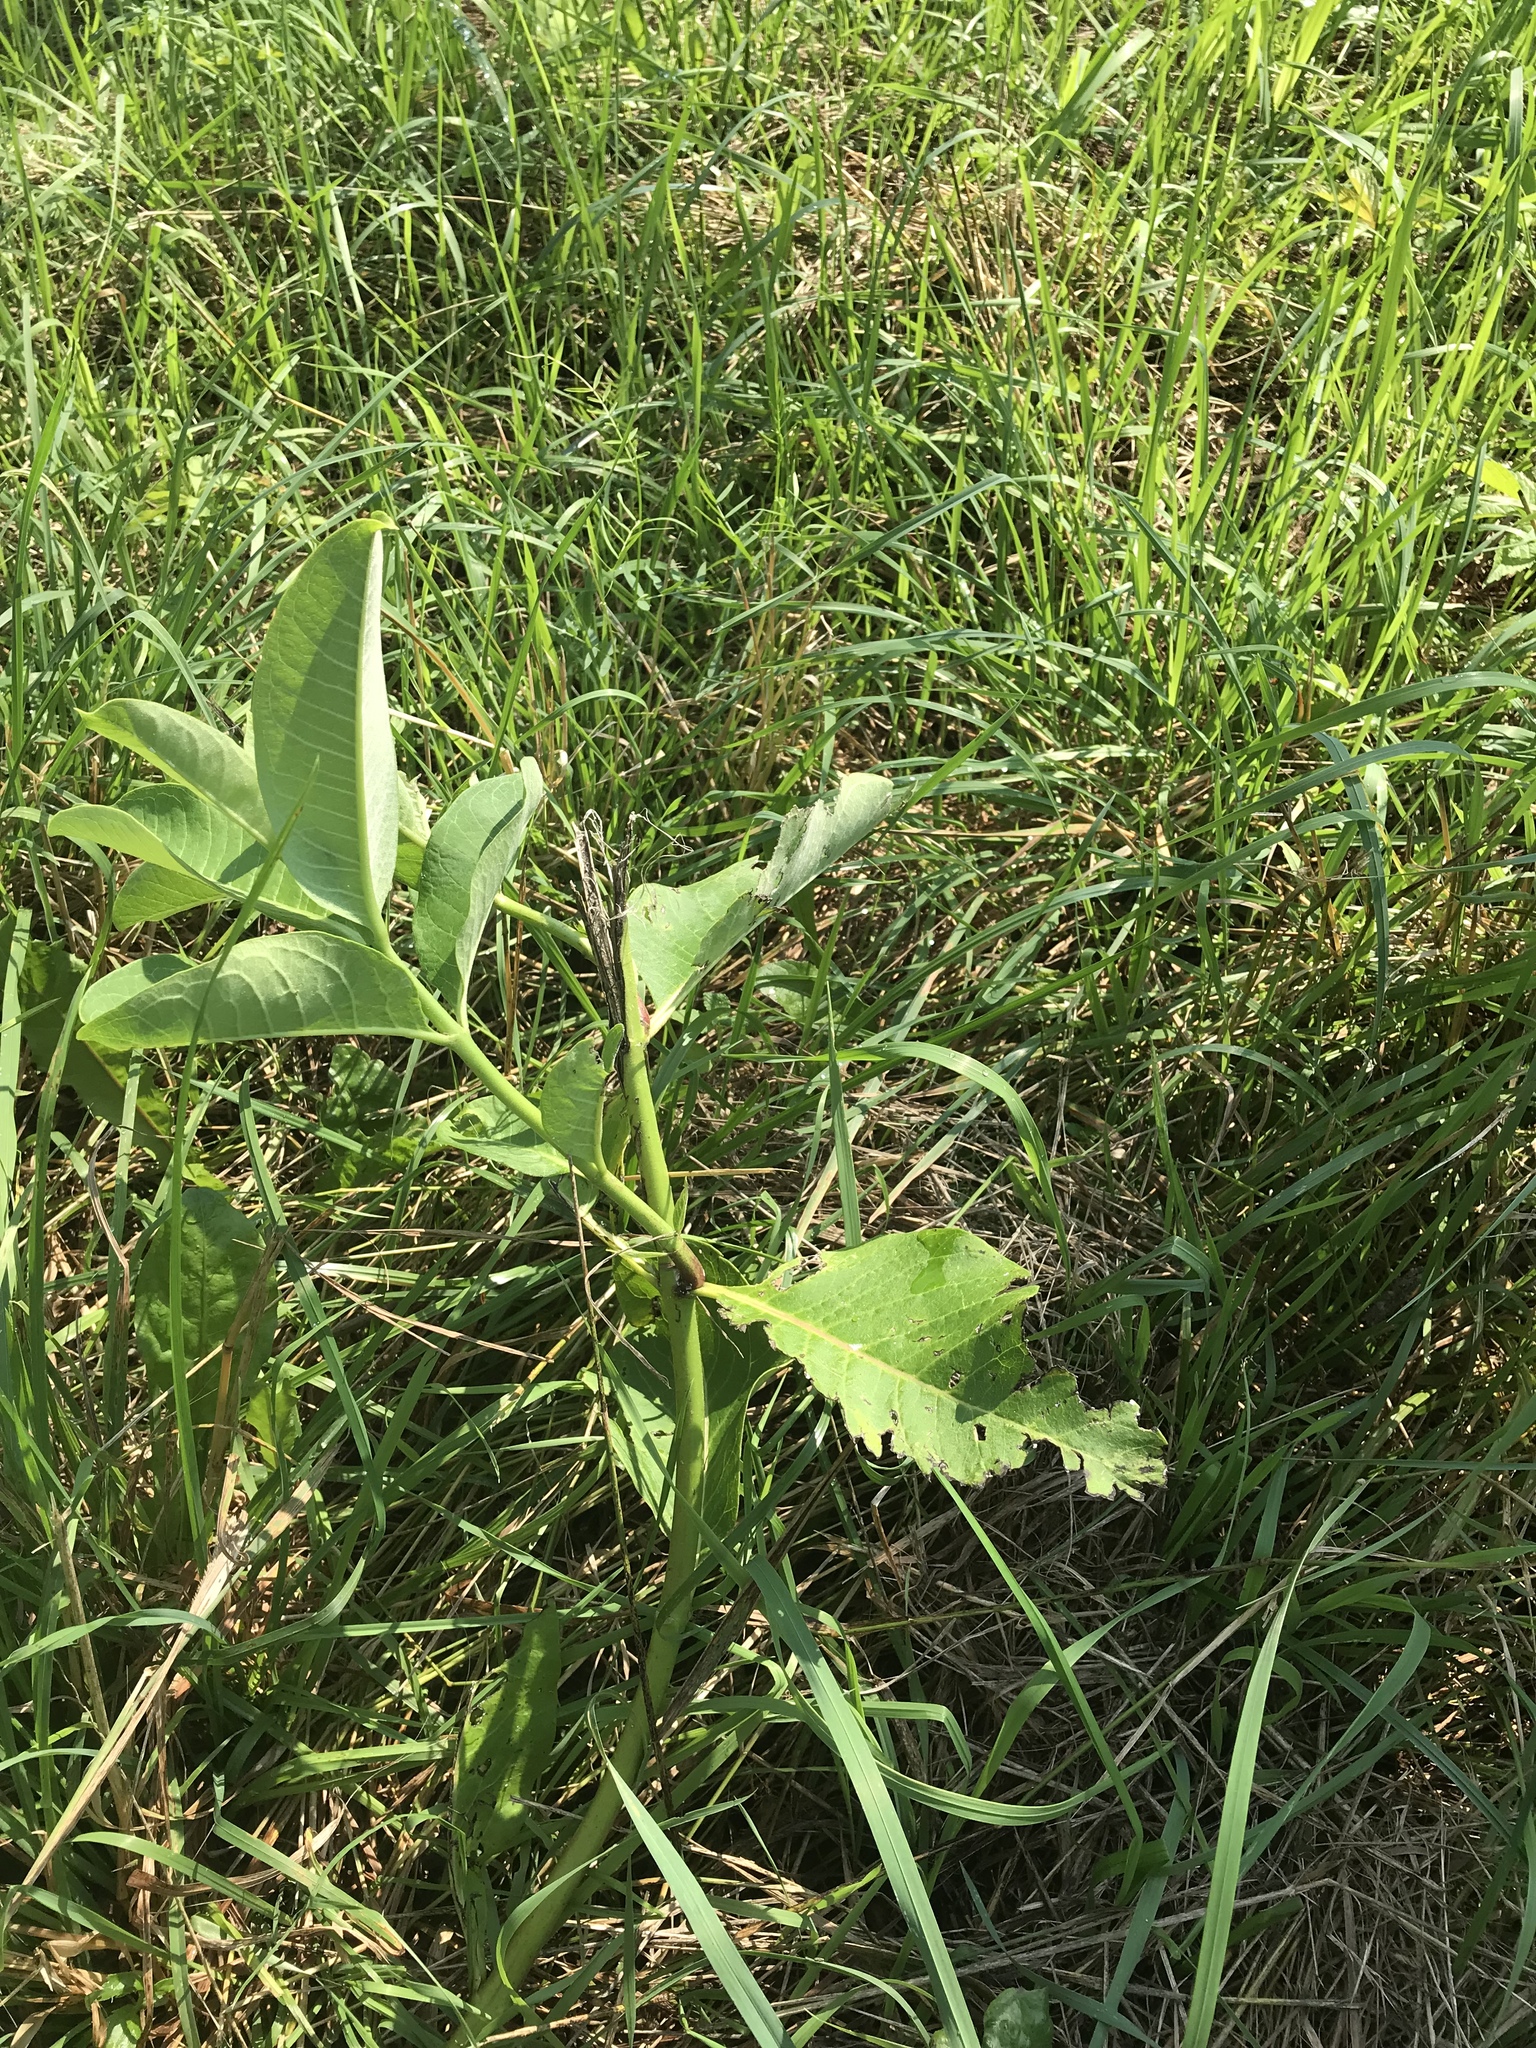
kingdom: Plantae
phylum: Tracheophyta
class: Magnoliopsida
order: Gentianales
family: Apocynaceae
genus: Asclepias
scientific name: Asclepias syriaca
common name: Common milkweed
